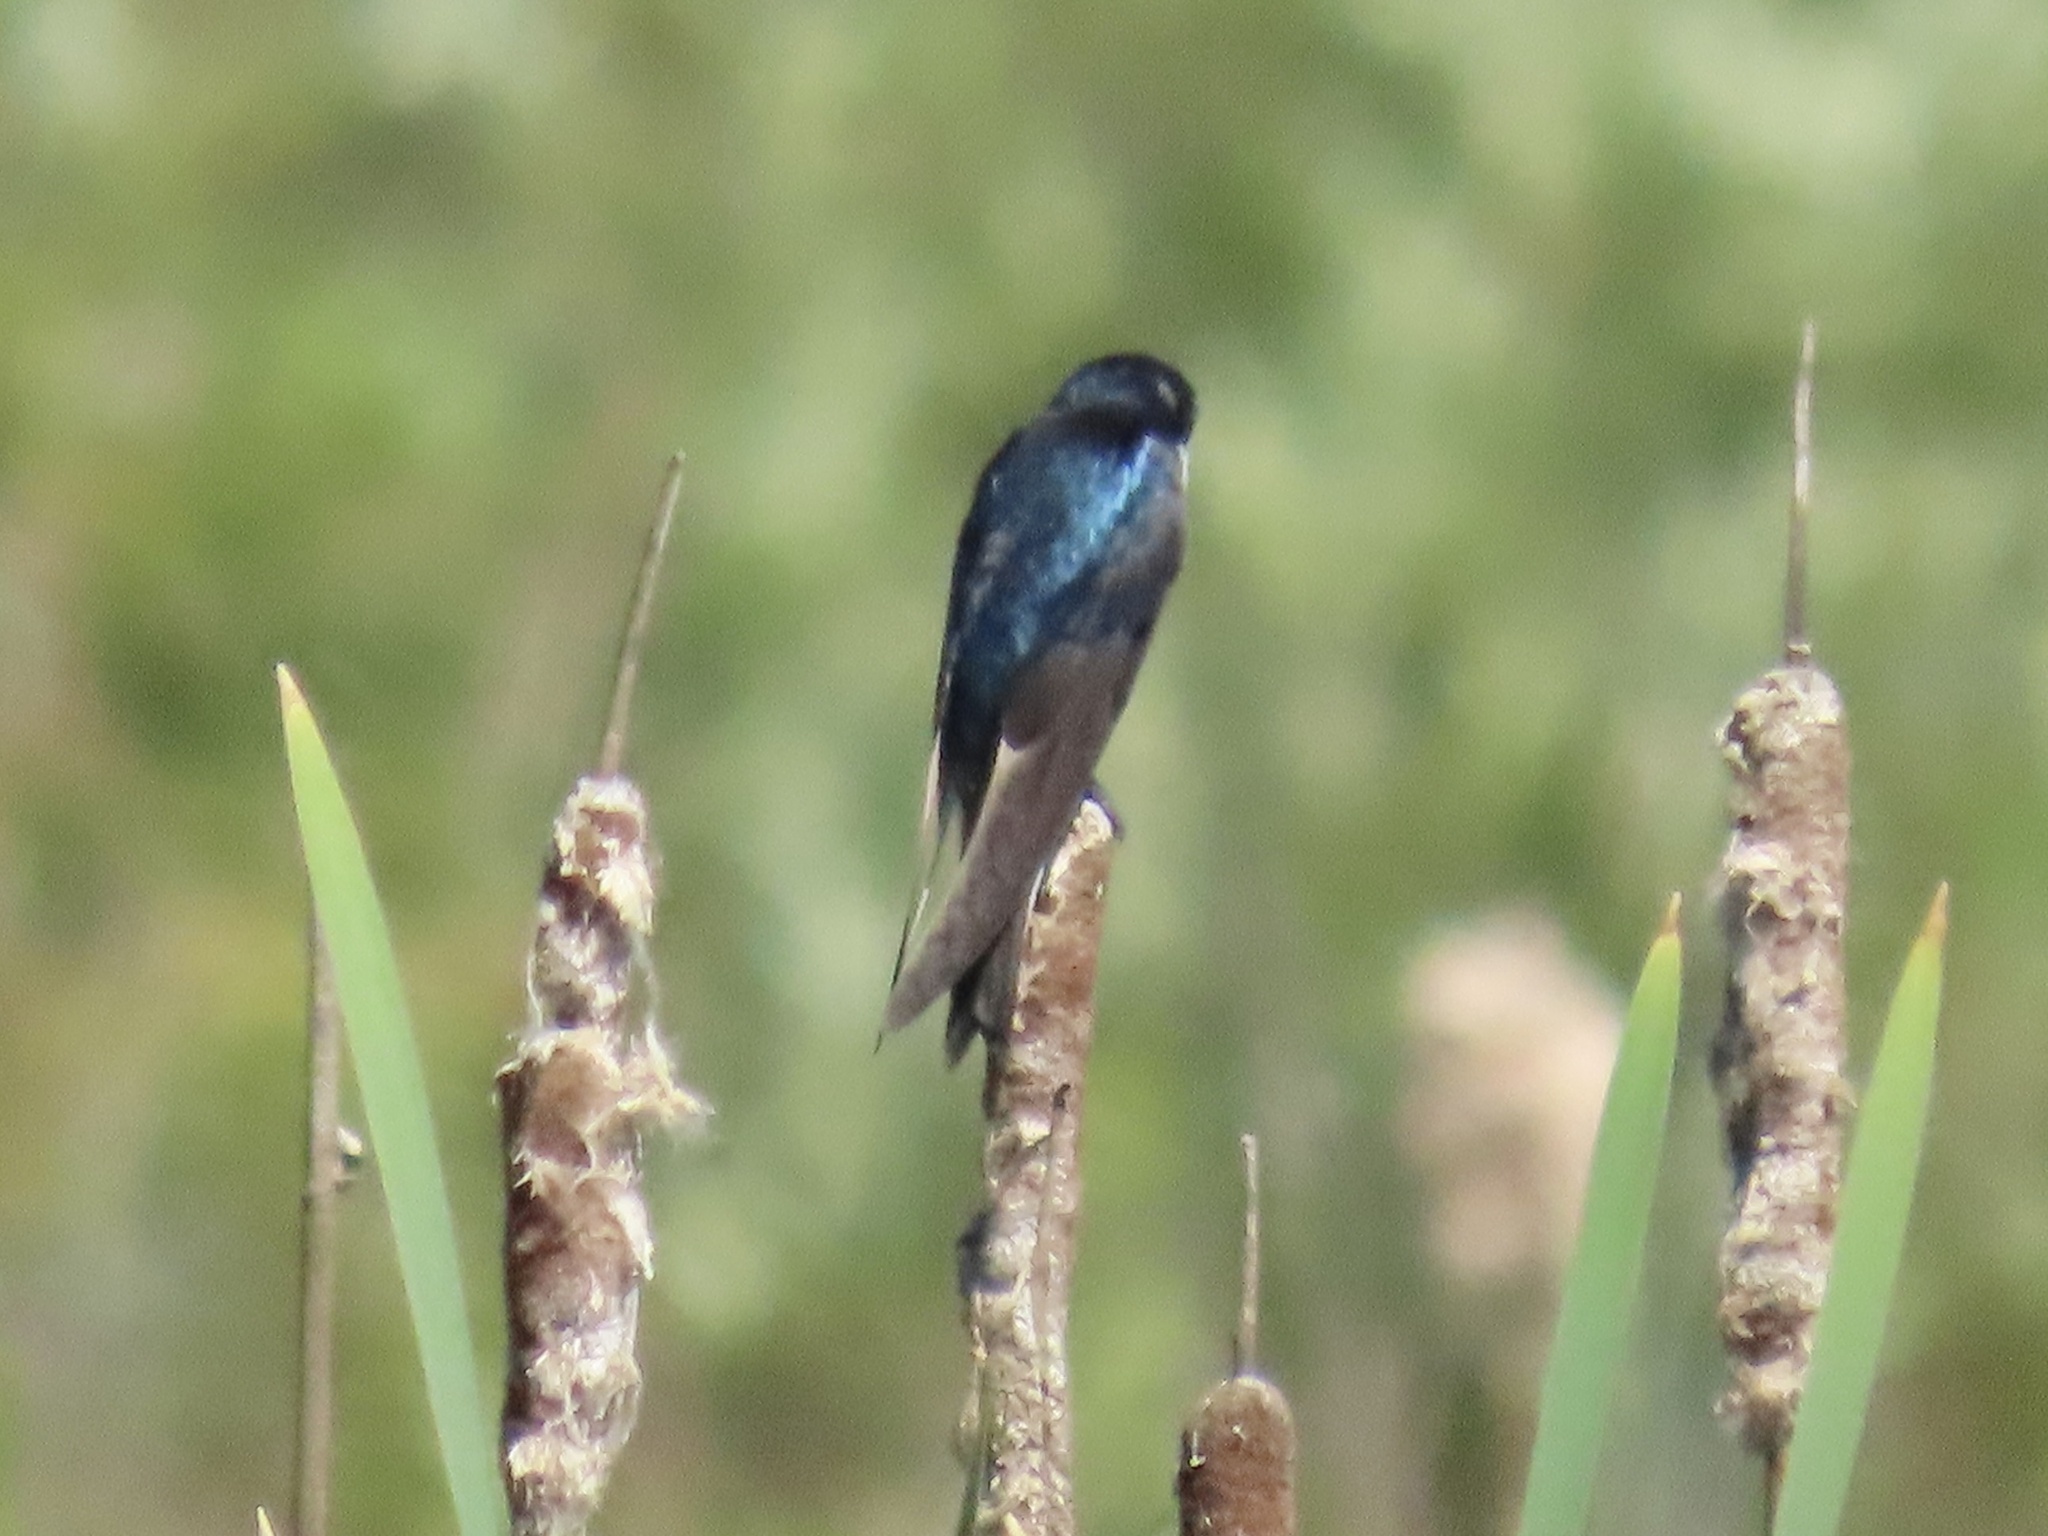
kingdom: Animalia
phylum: Chordata
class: Aves
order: Passeriformes
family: Hirundinidae
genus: Tachycineta
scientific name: Tachycineta bicolor
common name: Tree swallow
